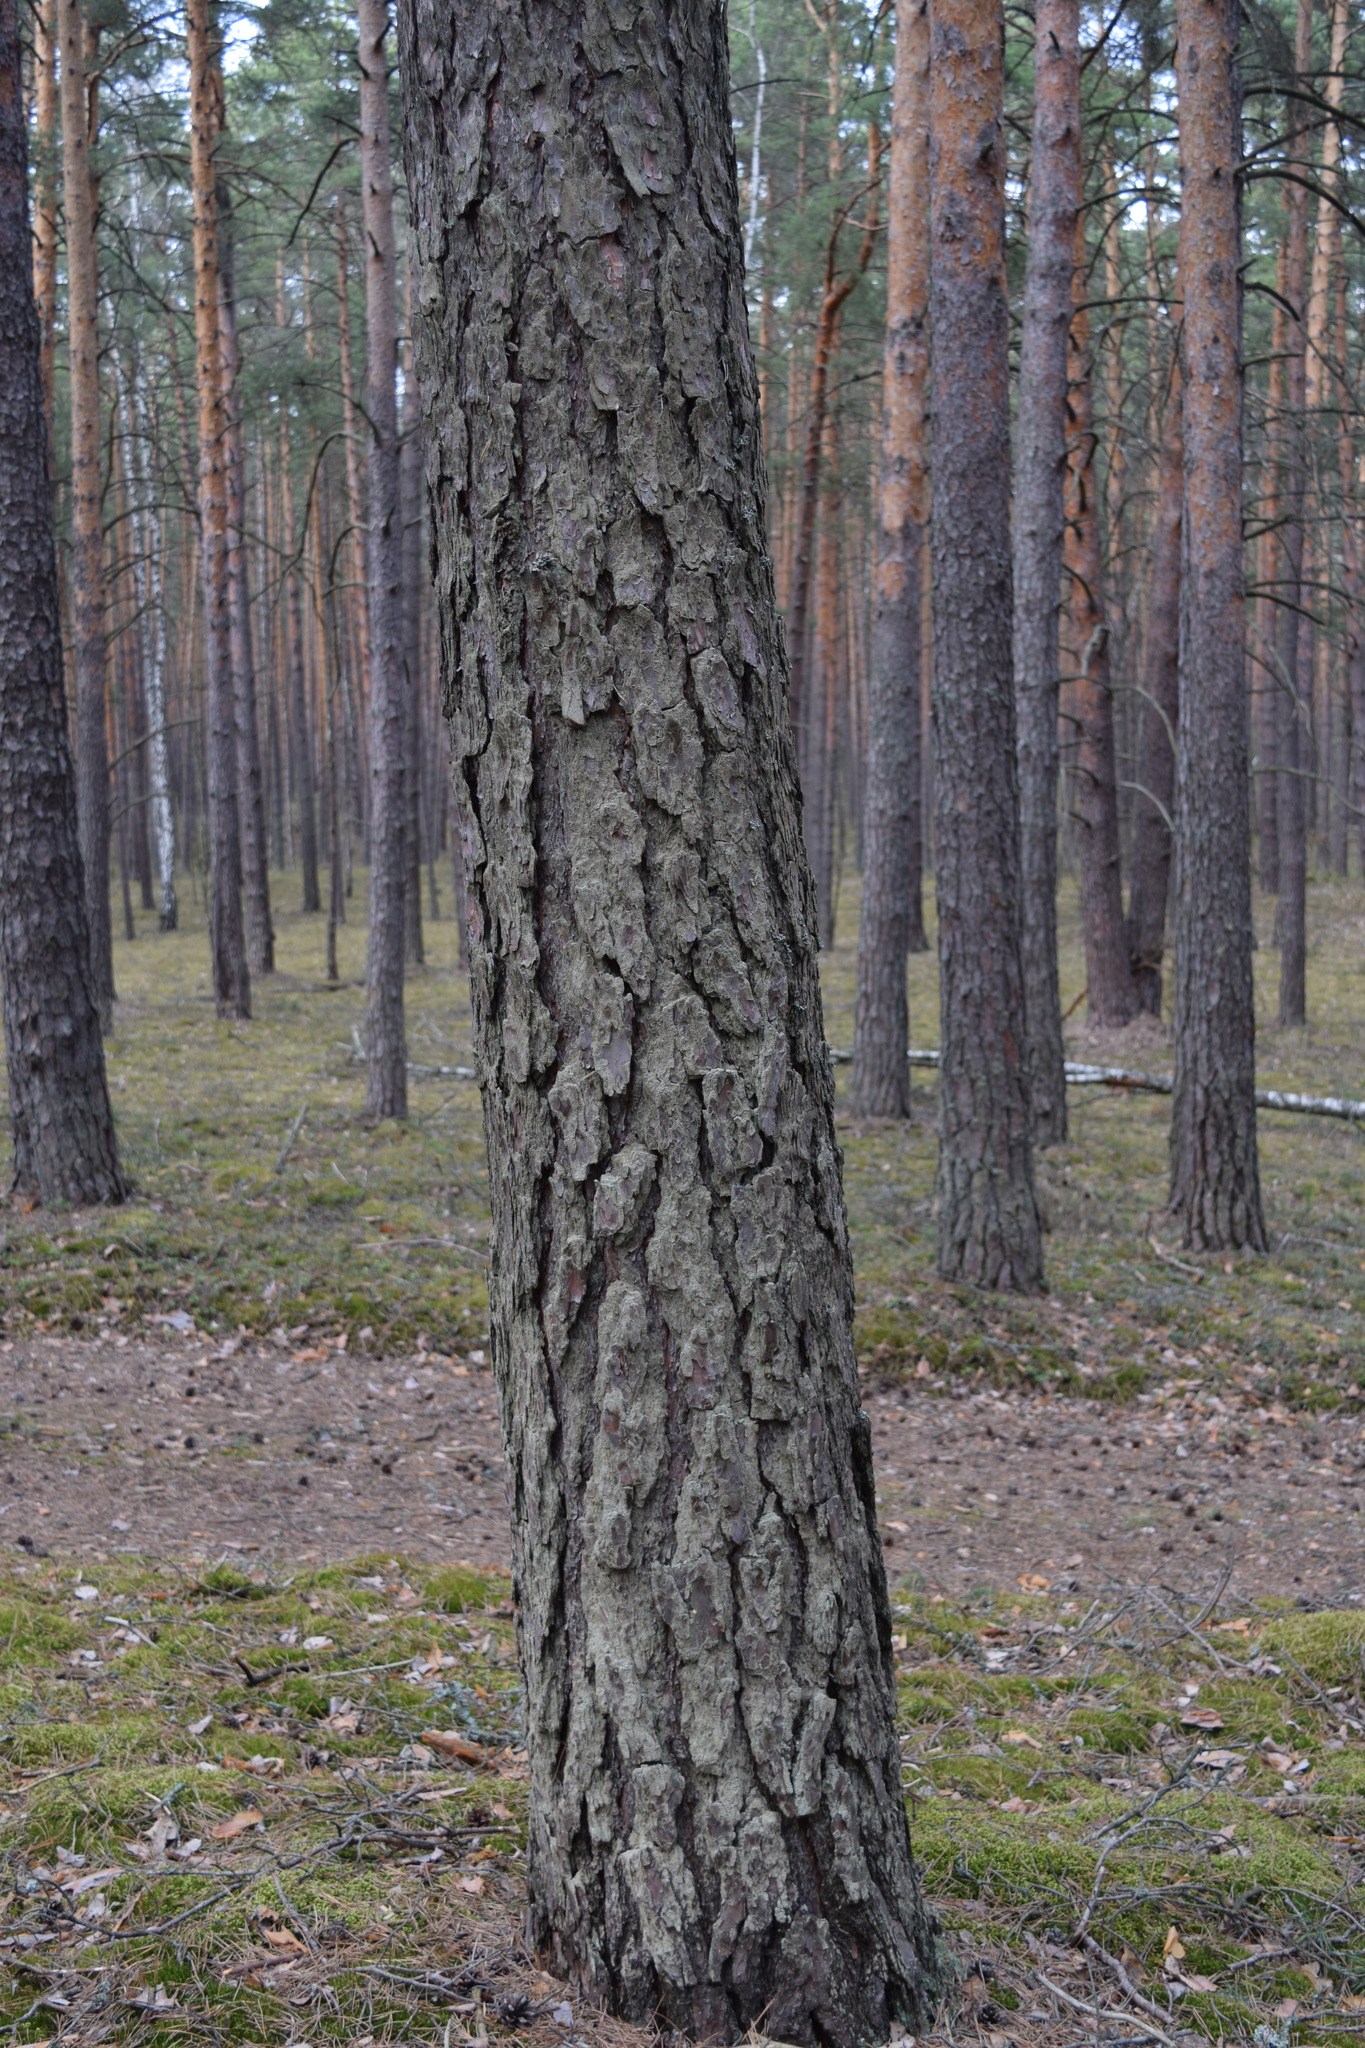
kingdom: Plantae
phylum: Tracheophyta
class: Pinopsida
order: Pinales
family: Pinaceae
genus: Pinus
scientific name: Pinus sylvestris
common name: Scots pine
